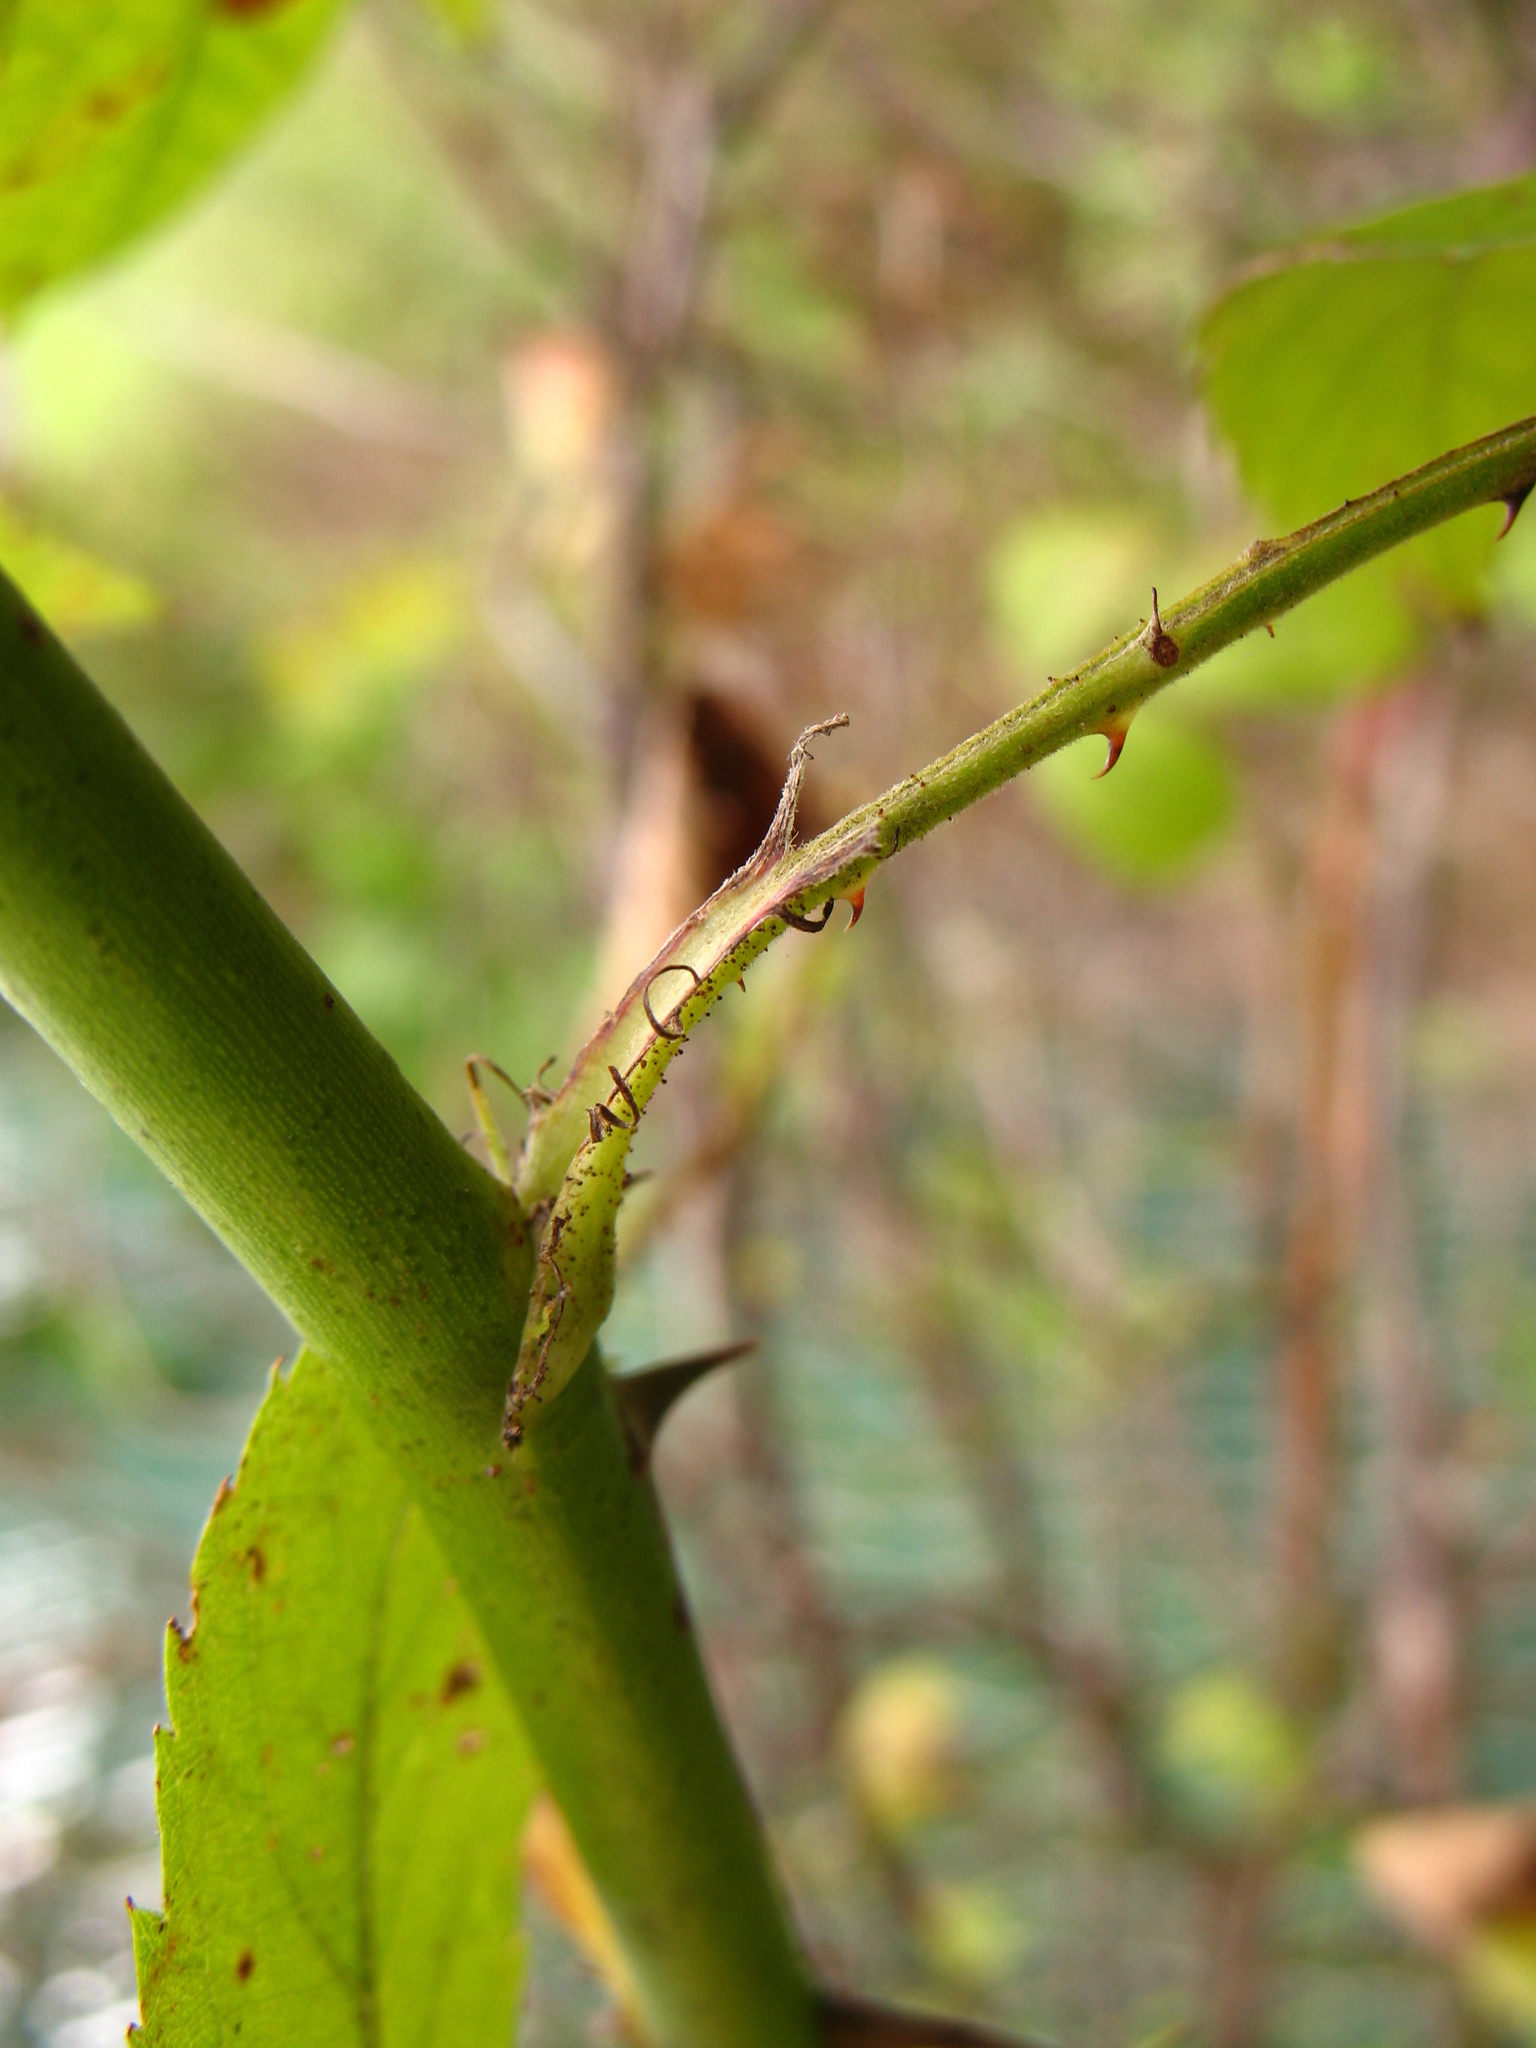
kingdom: Plantae
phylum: Tracheophyta
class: Magnoliopsida
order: Rosales
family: Rosaceae
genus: Rosa
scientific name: Rosa multiflora
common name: Multiflora rose
